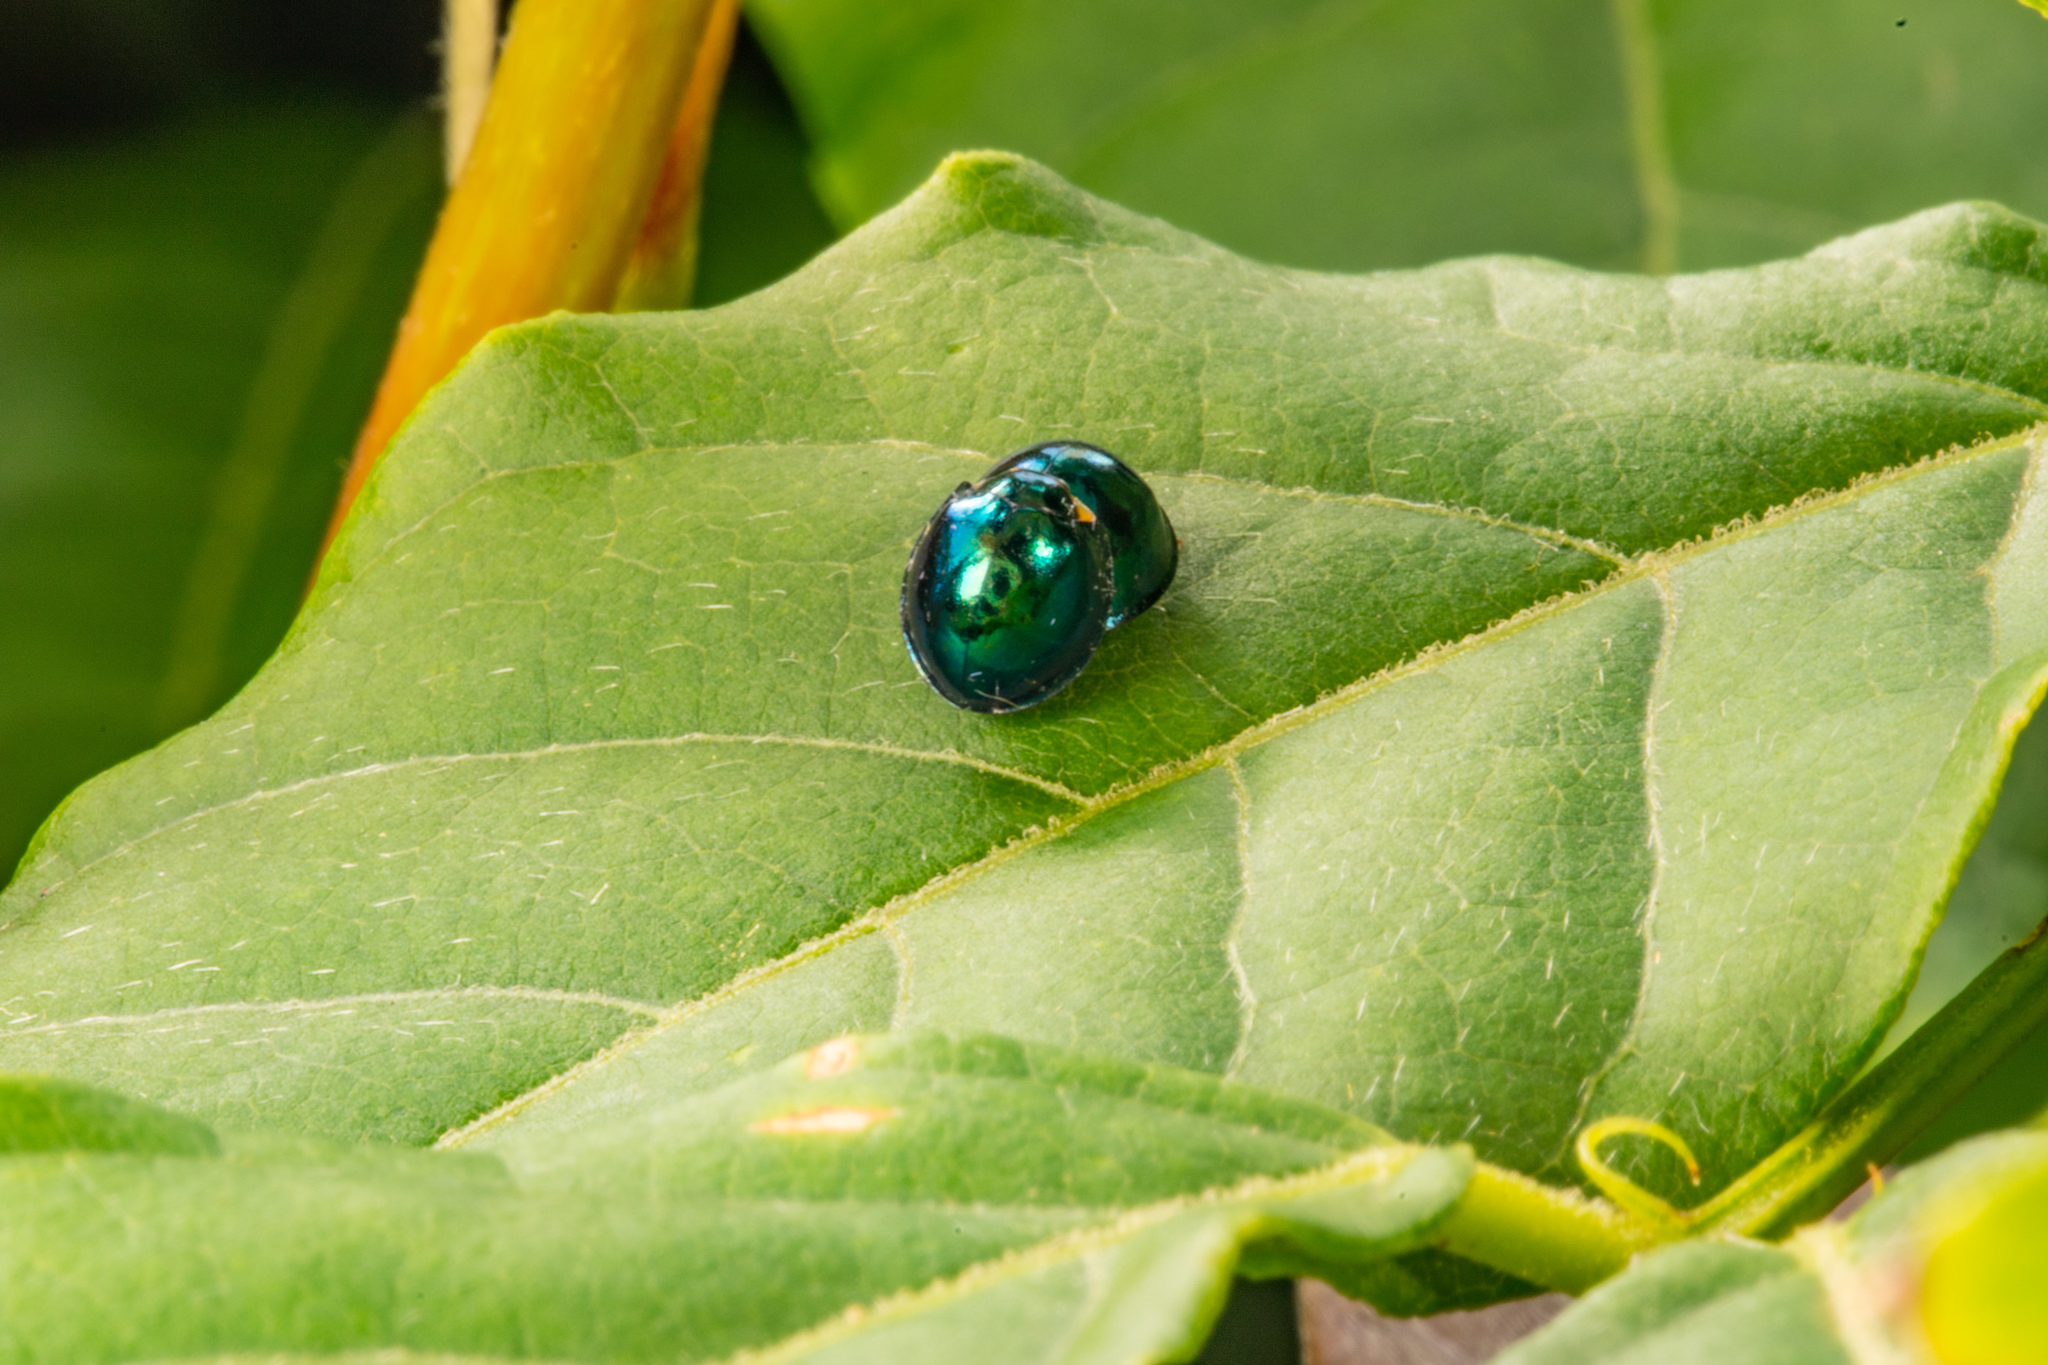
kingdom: Animalia
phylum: Arthropoda
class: Insecta
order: Coleoptera
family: Coccinellidae
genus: Halmus
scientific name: Halmus chalybeus
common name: Steel blue ladybird beetle
